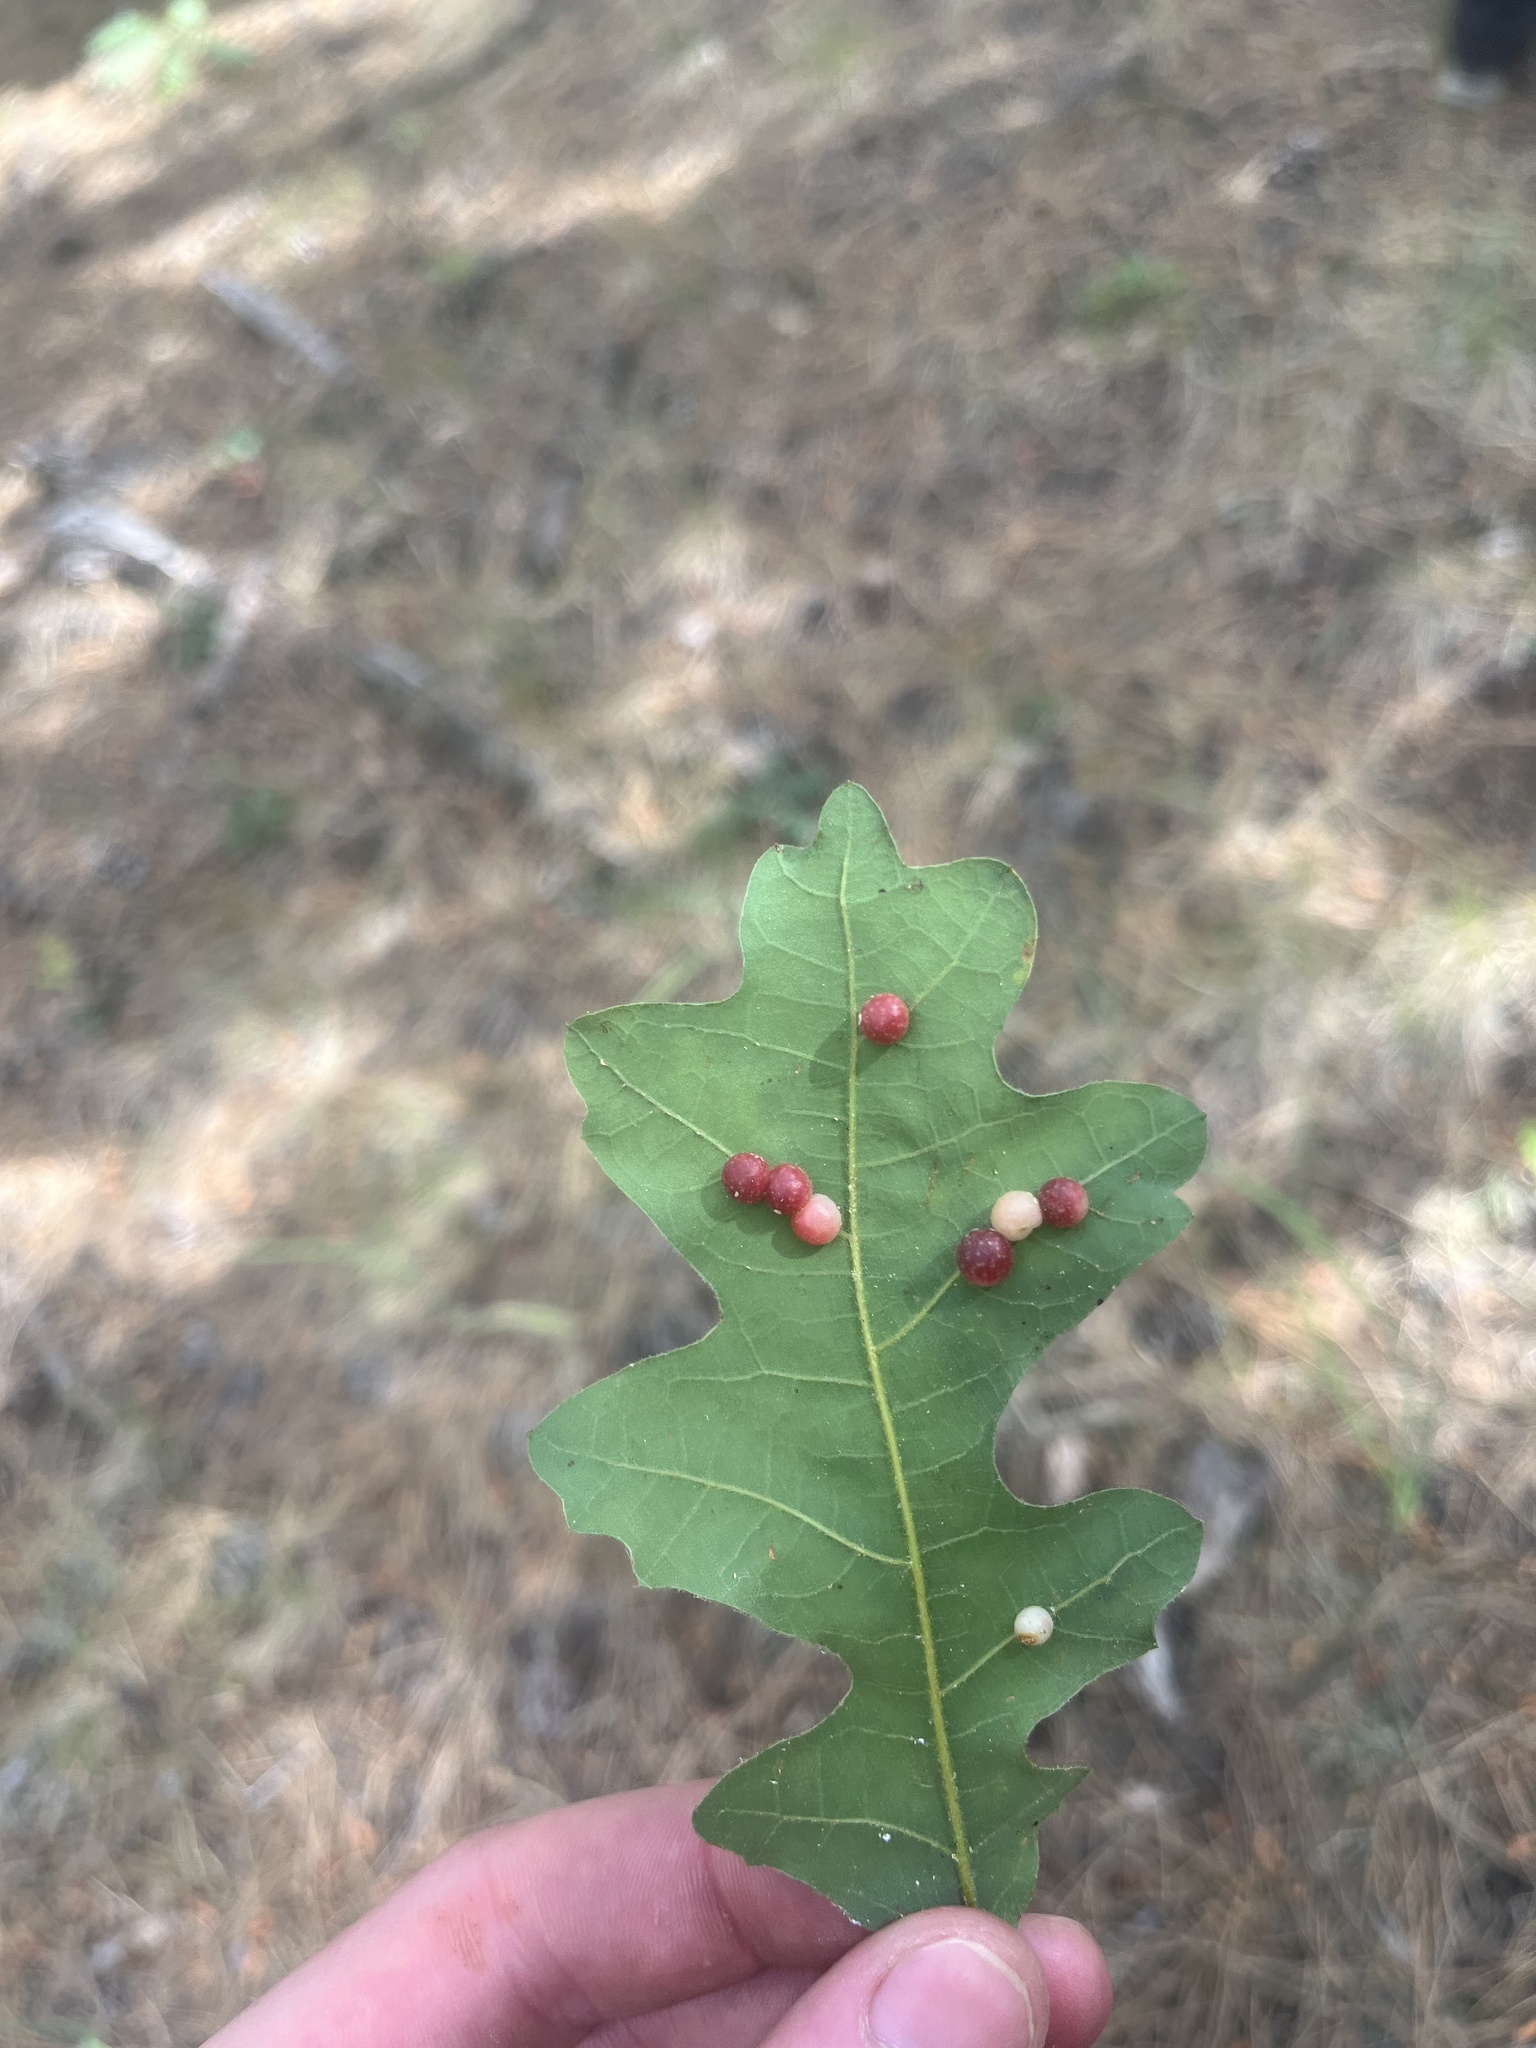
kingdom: Animalia
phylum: Arthropoda
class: Insecta
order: Hymenoptera
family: Cynipidae
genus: Trigonaspis
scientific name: Trigonaspis
